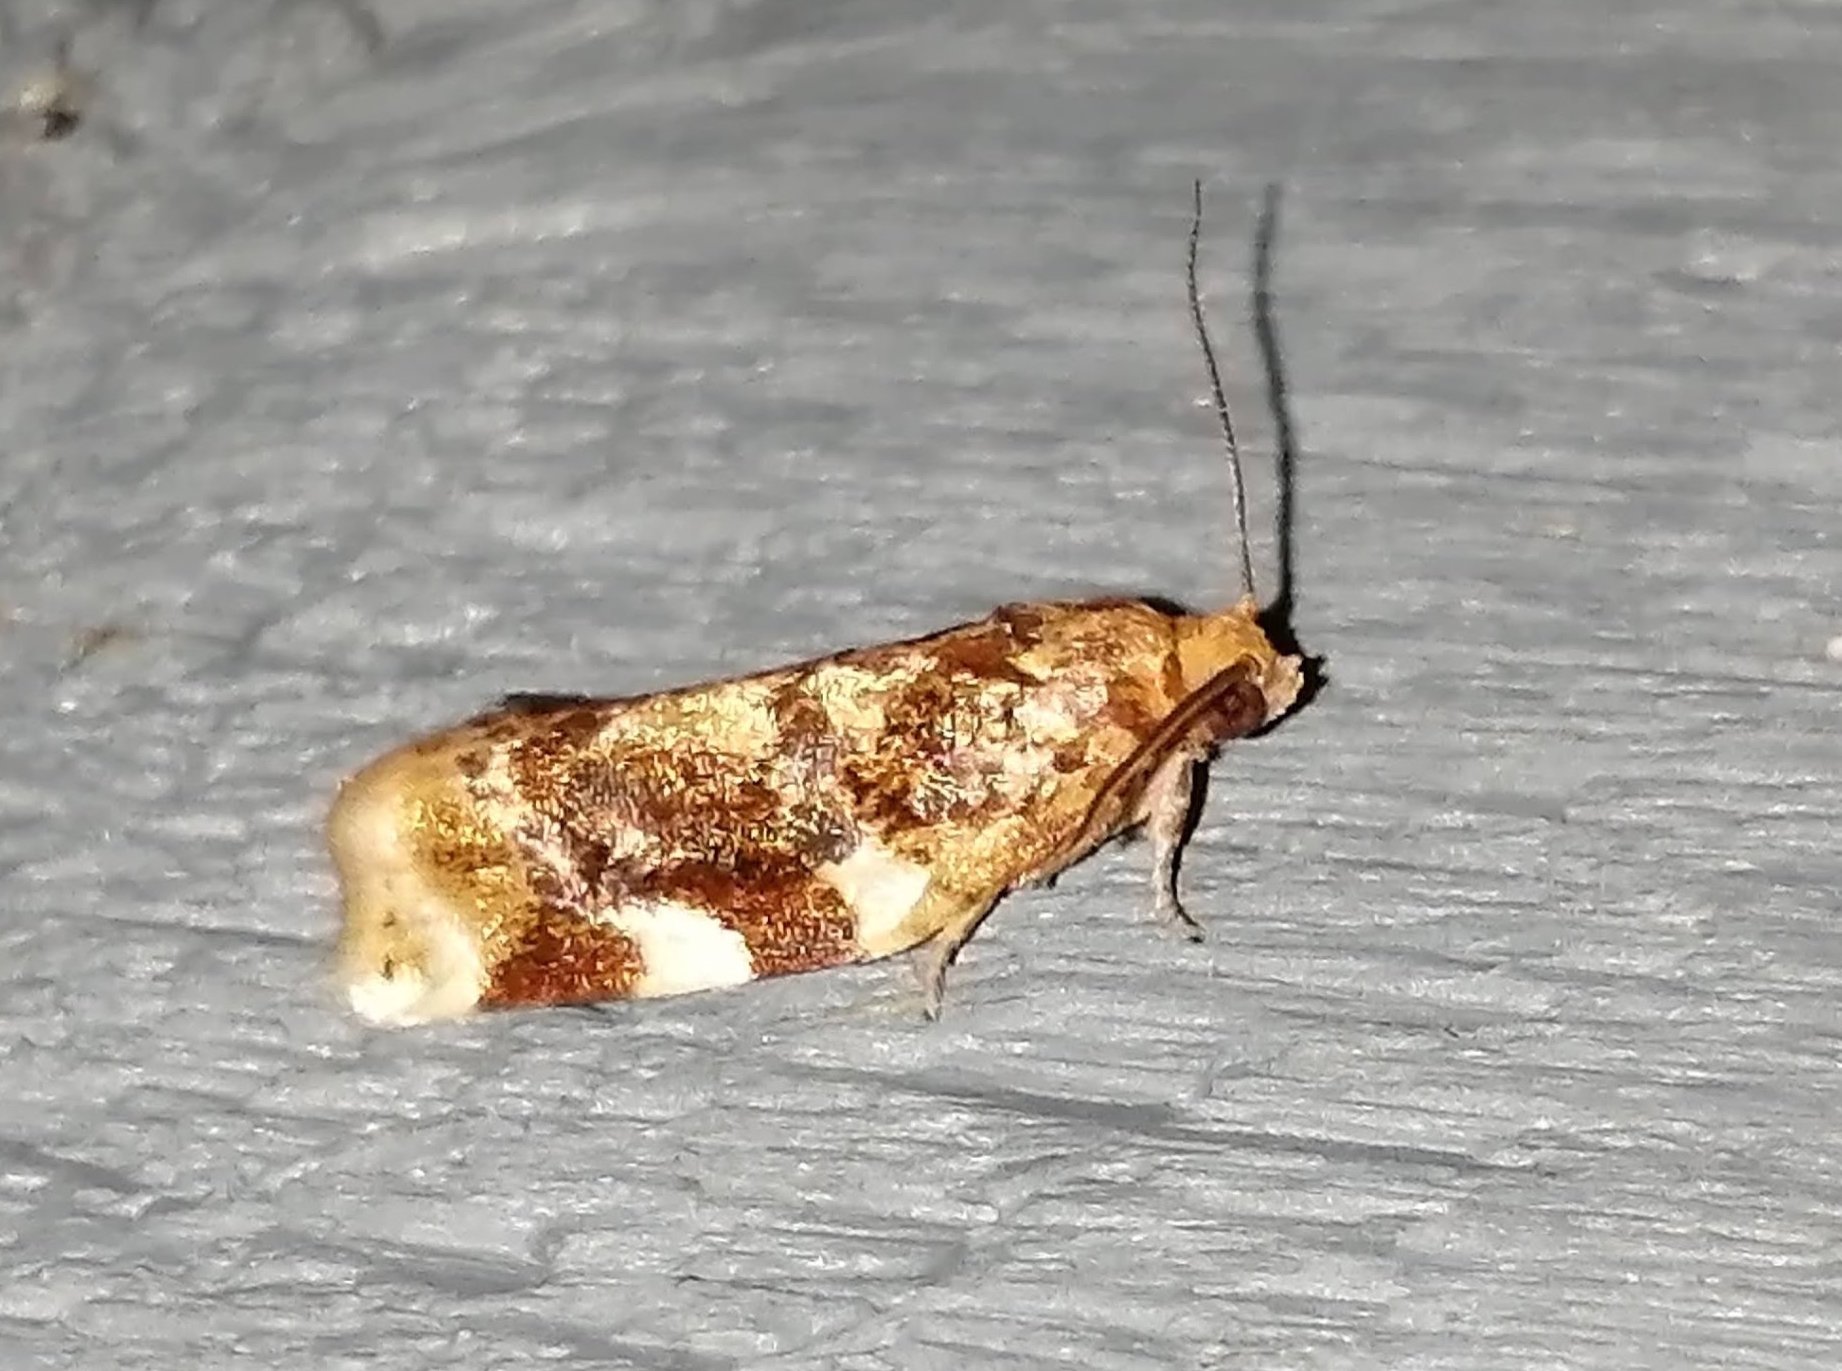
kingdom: Animalia
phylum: Arthropoda
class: Insecta
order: Lepidoptera
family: Tortricidae
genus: Archips
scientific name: Archips argyrospila
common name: Fruit-tree leafroller moth
